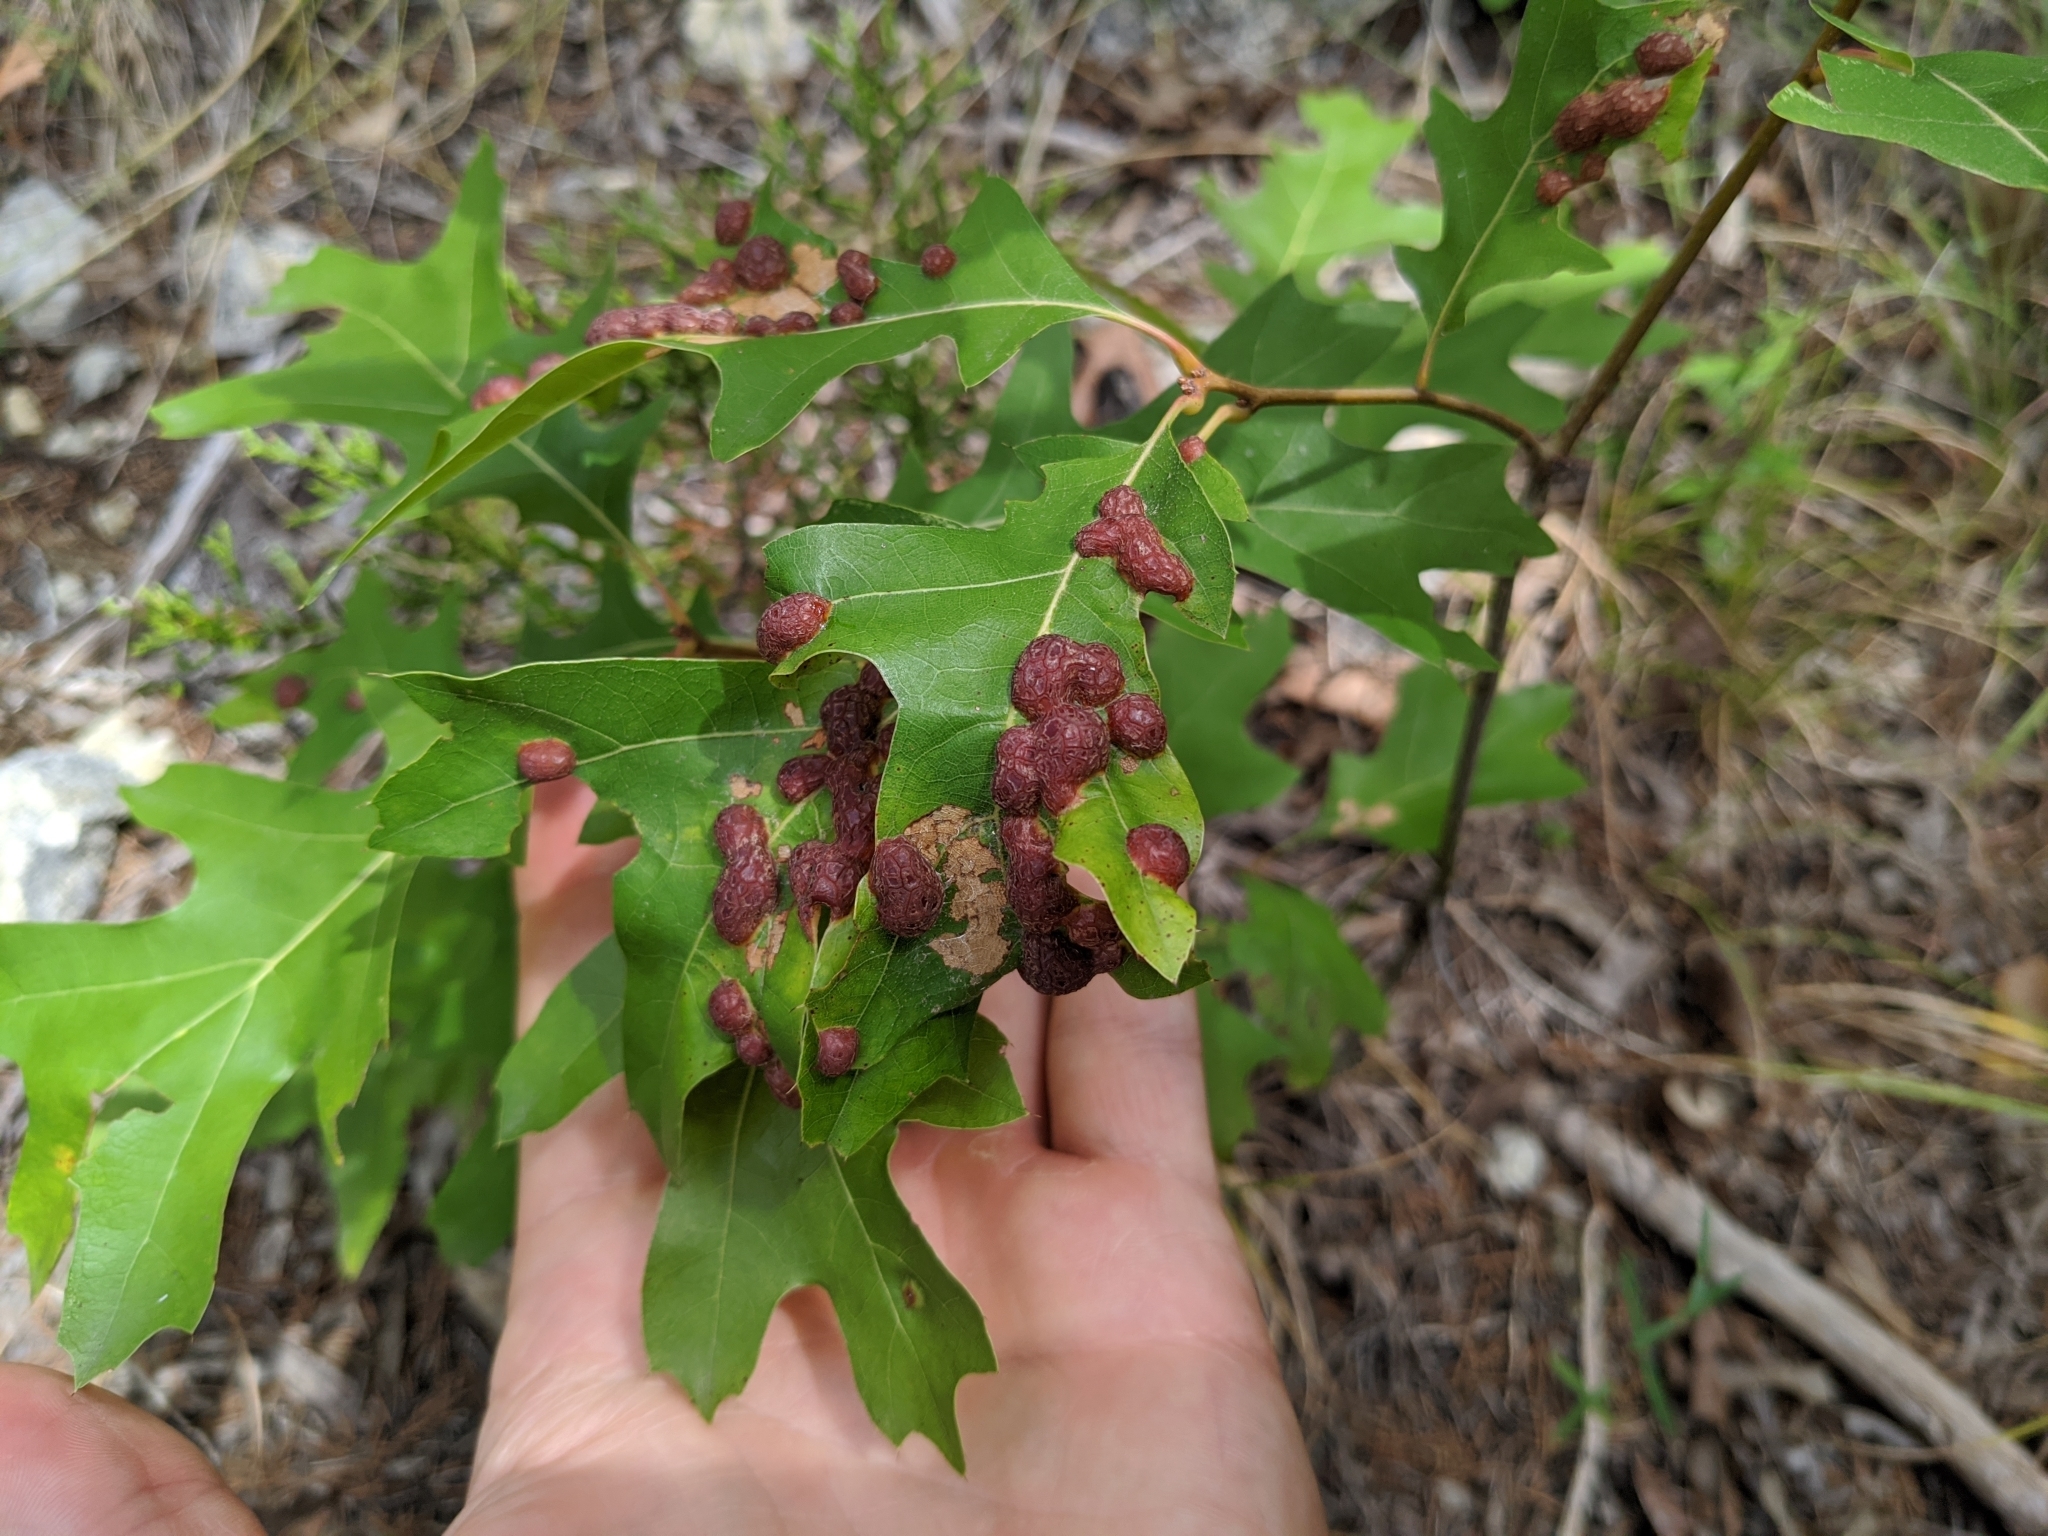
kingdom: Animalia
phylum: Arthropoda
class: Insecta
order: Diptera
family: Cecidomyiidae
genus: Polystepha
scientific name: Polystepha pilulae
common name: Oak leaf gall midge
